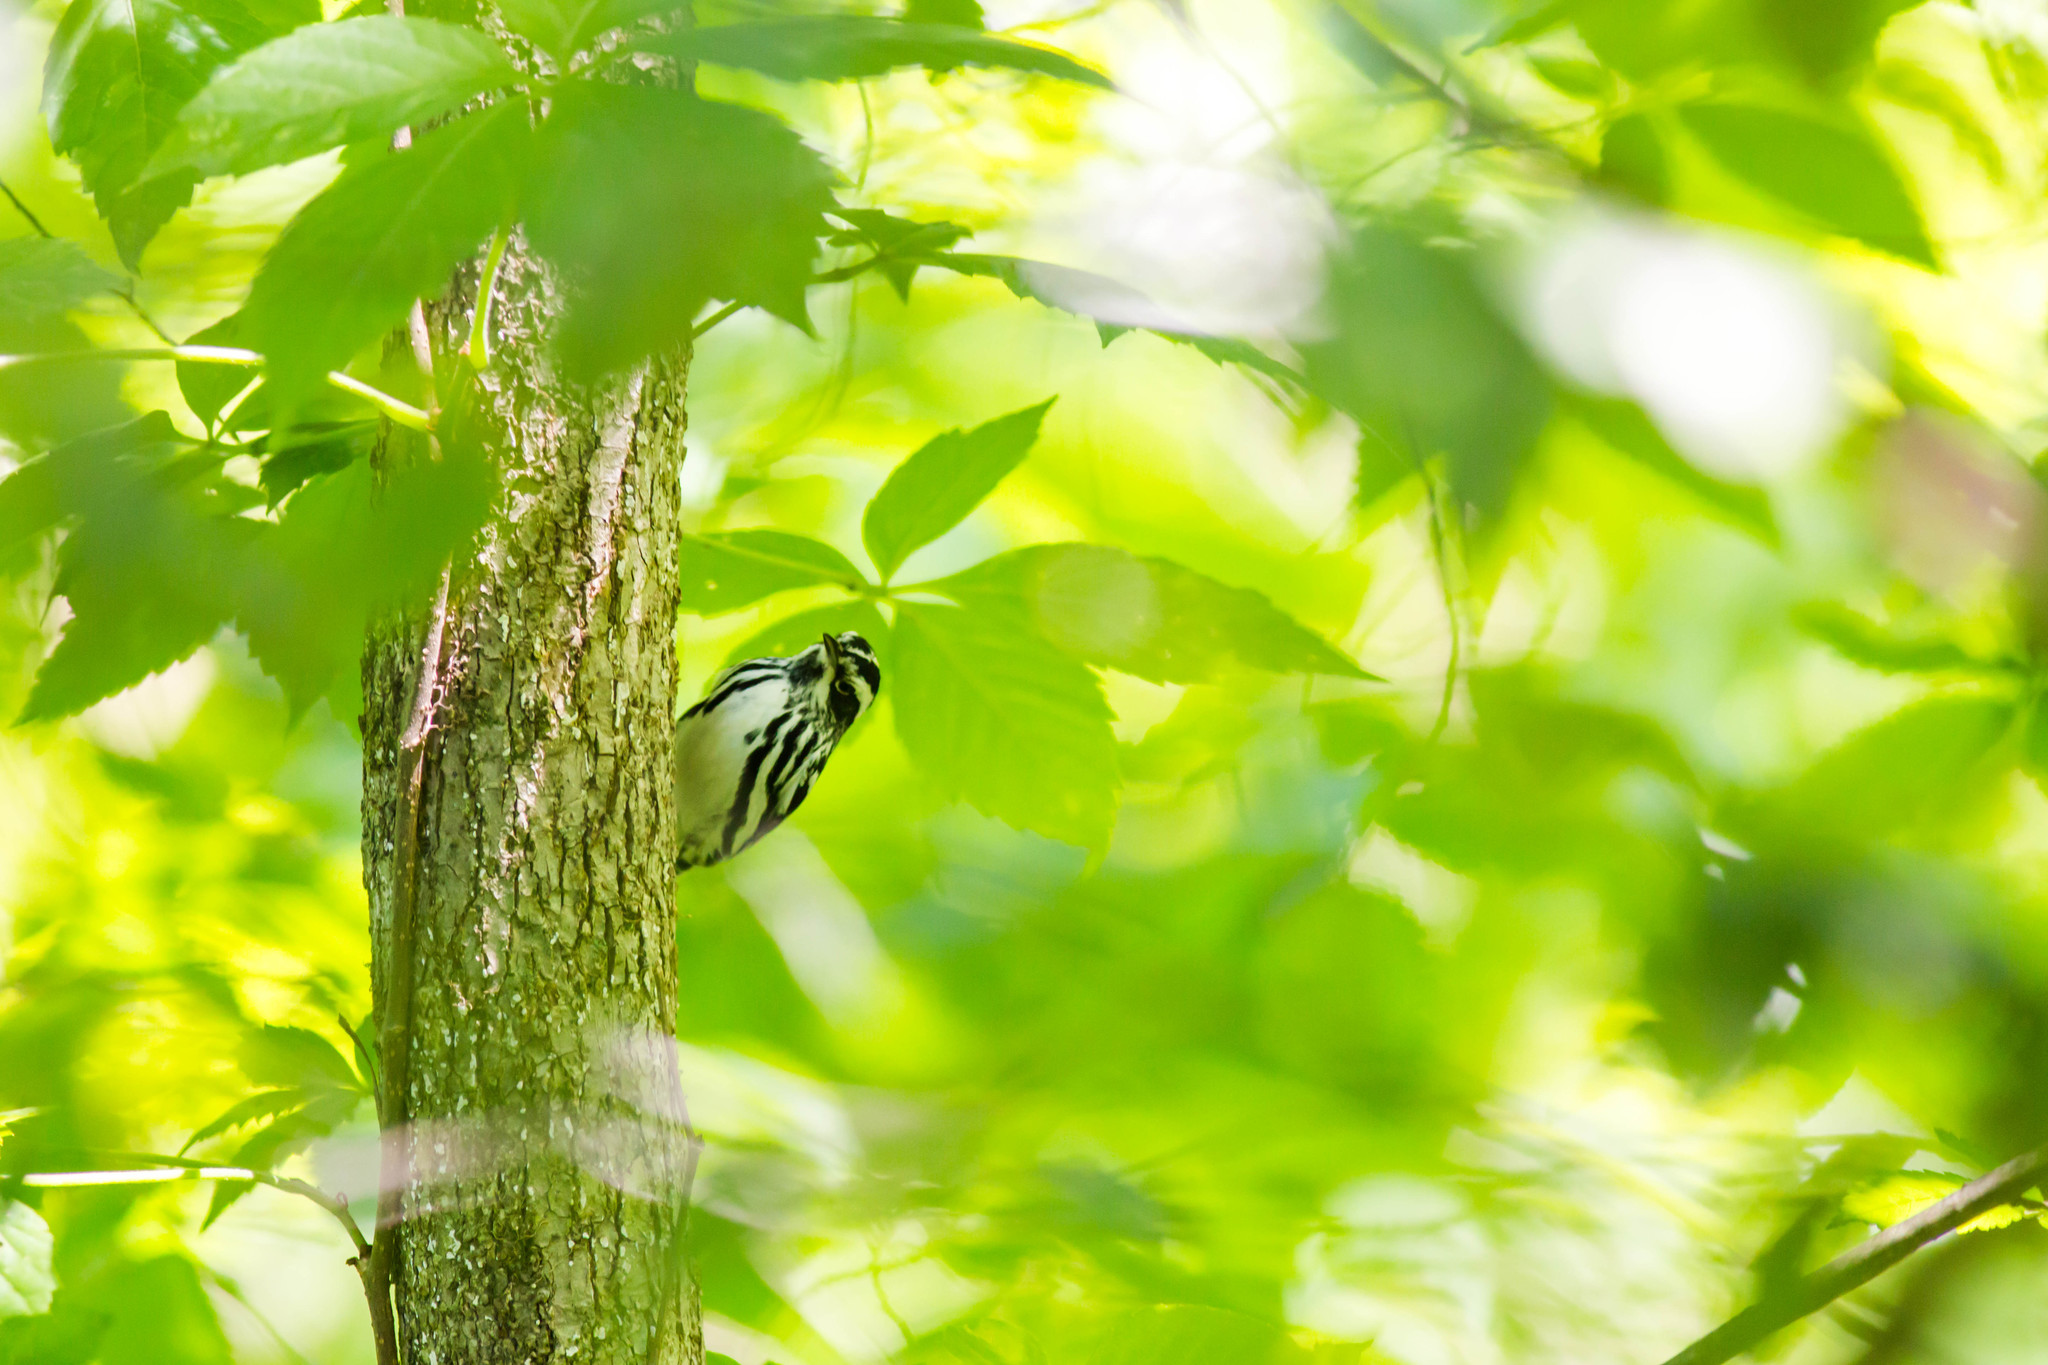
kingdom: Animalia
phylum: Chordata
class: Aves
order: Passeriformes
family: Parulidae
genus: Mniotilta
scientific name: Mniotilta varia
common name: Black-and-white warbler
